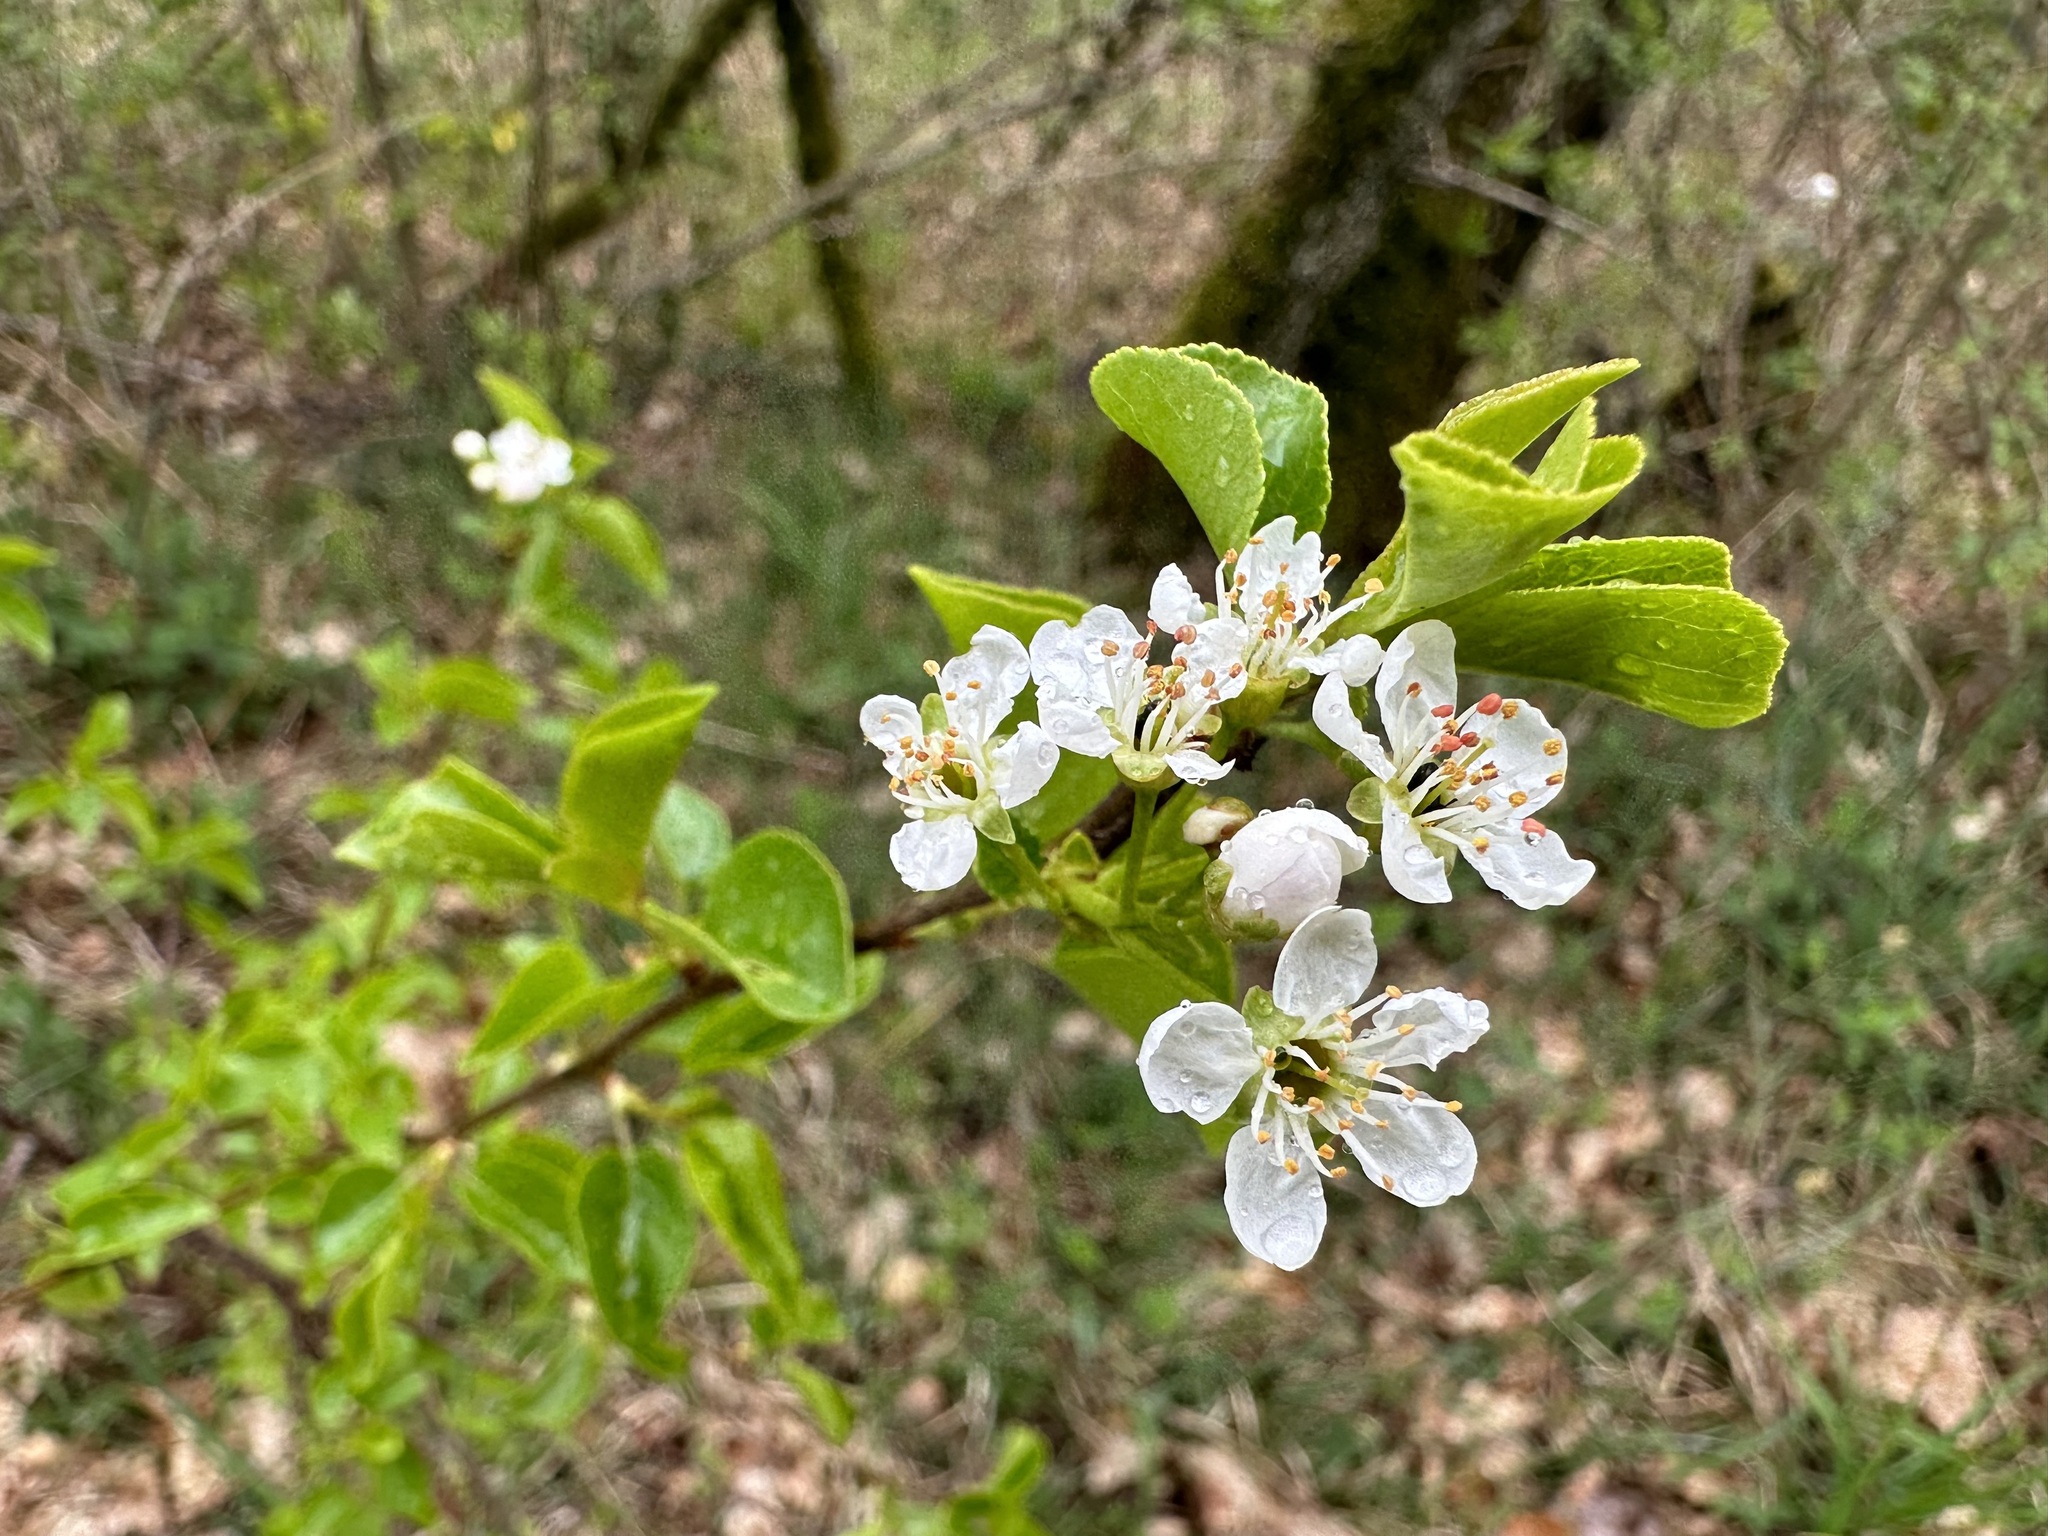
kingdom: Plantae
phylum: Tracheophyta
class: Magnoliopsida
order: Rosales
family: Rosaceae
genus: Prunus
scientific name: Prunus mahaleb
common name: Mahaleb cherry
